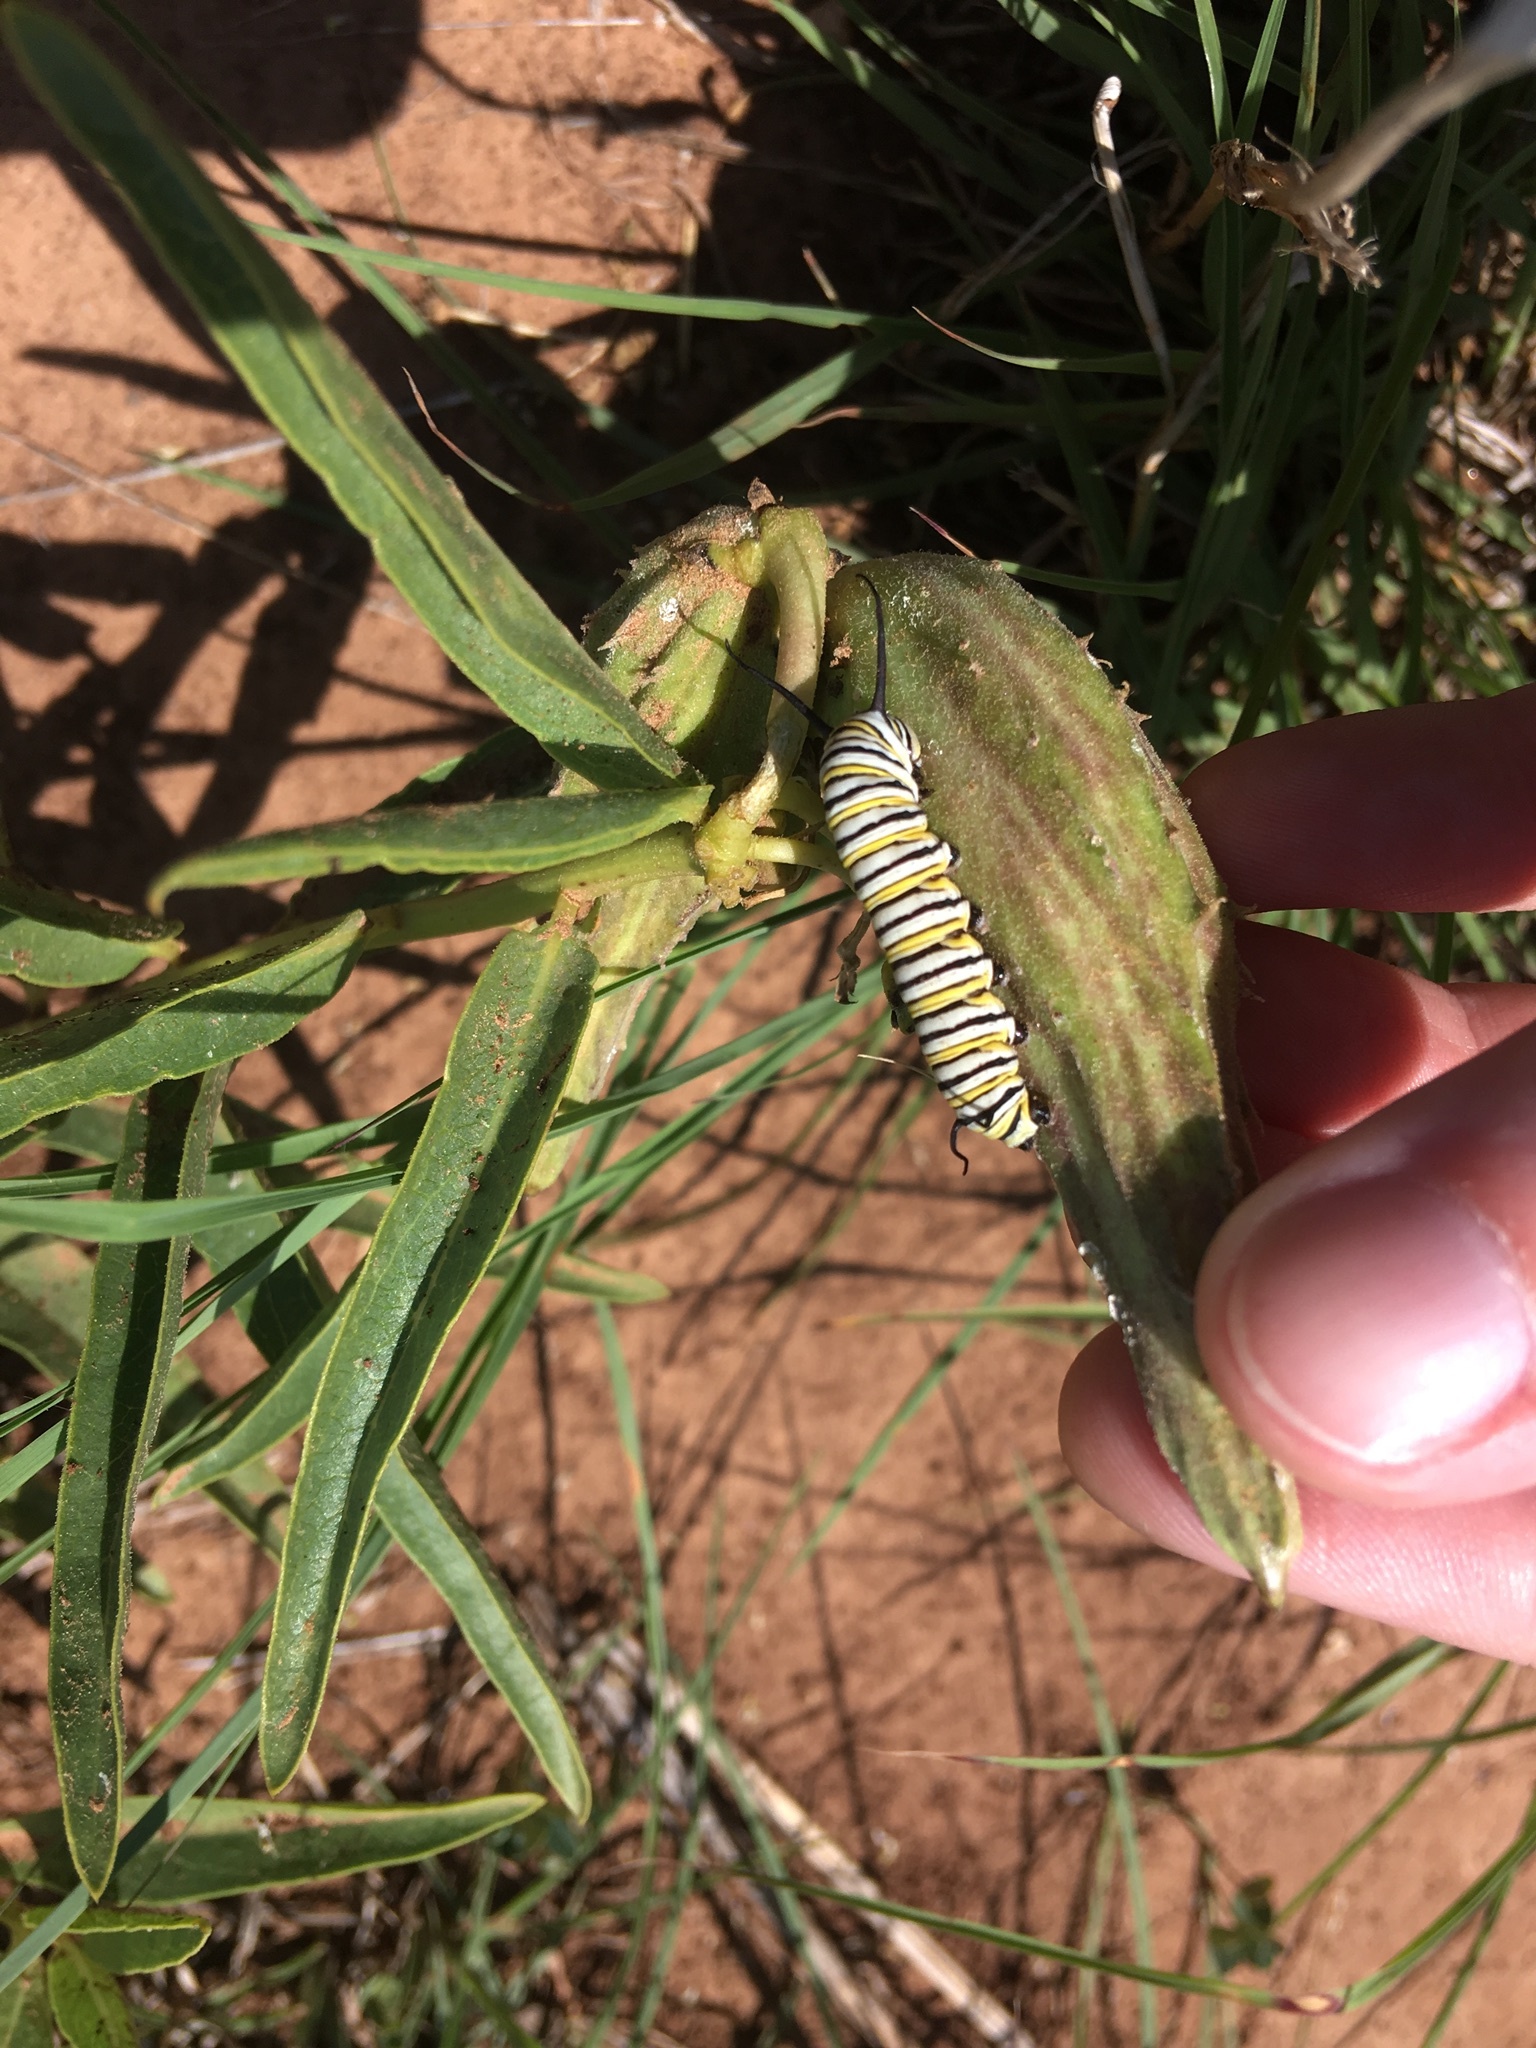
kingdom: Animalia
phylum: Arthropoda
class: Insecta
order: Lepidoptera
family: Nymphalidae
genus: Danaus
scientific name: Danaus plexippus
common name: Monarch
